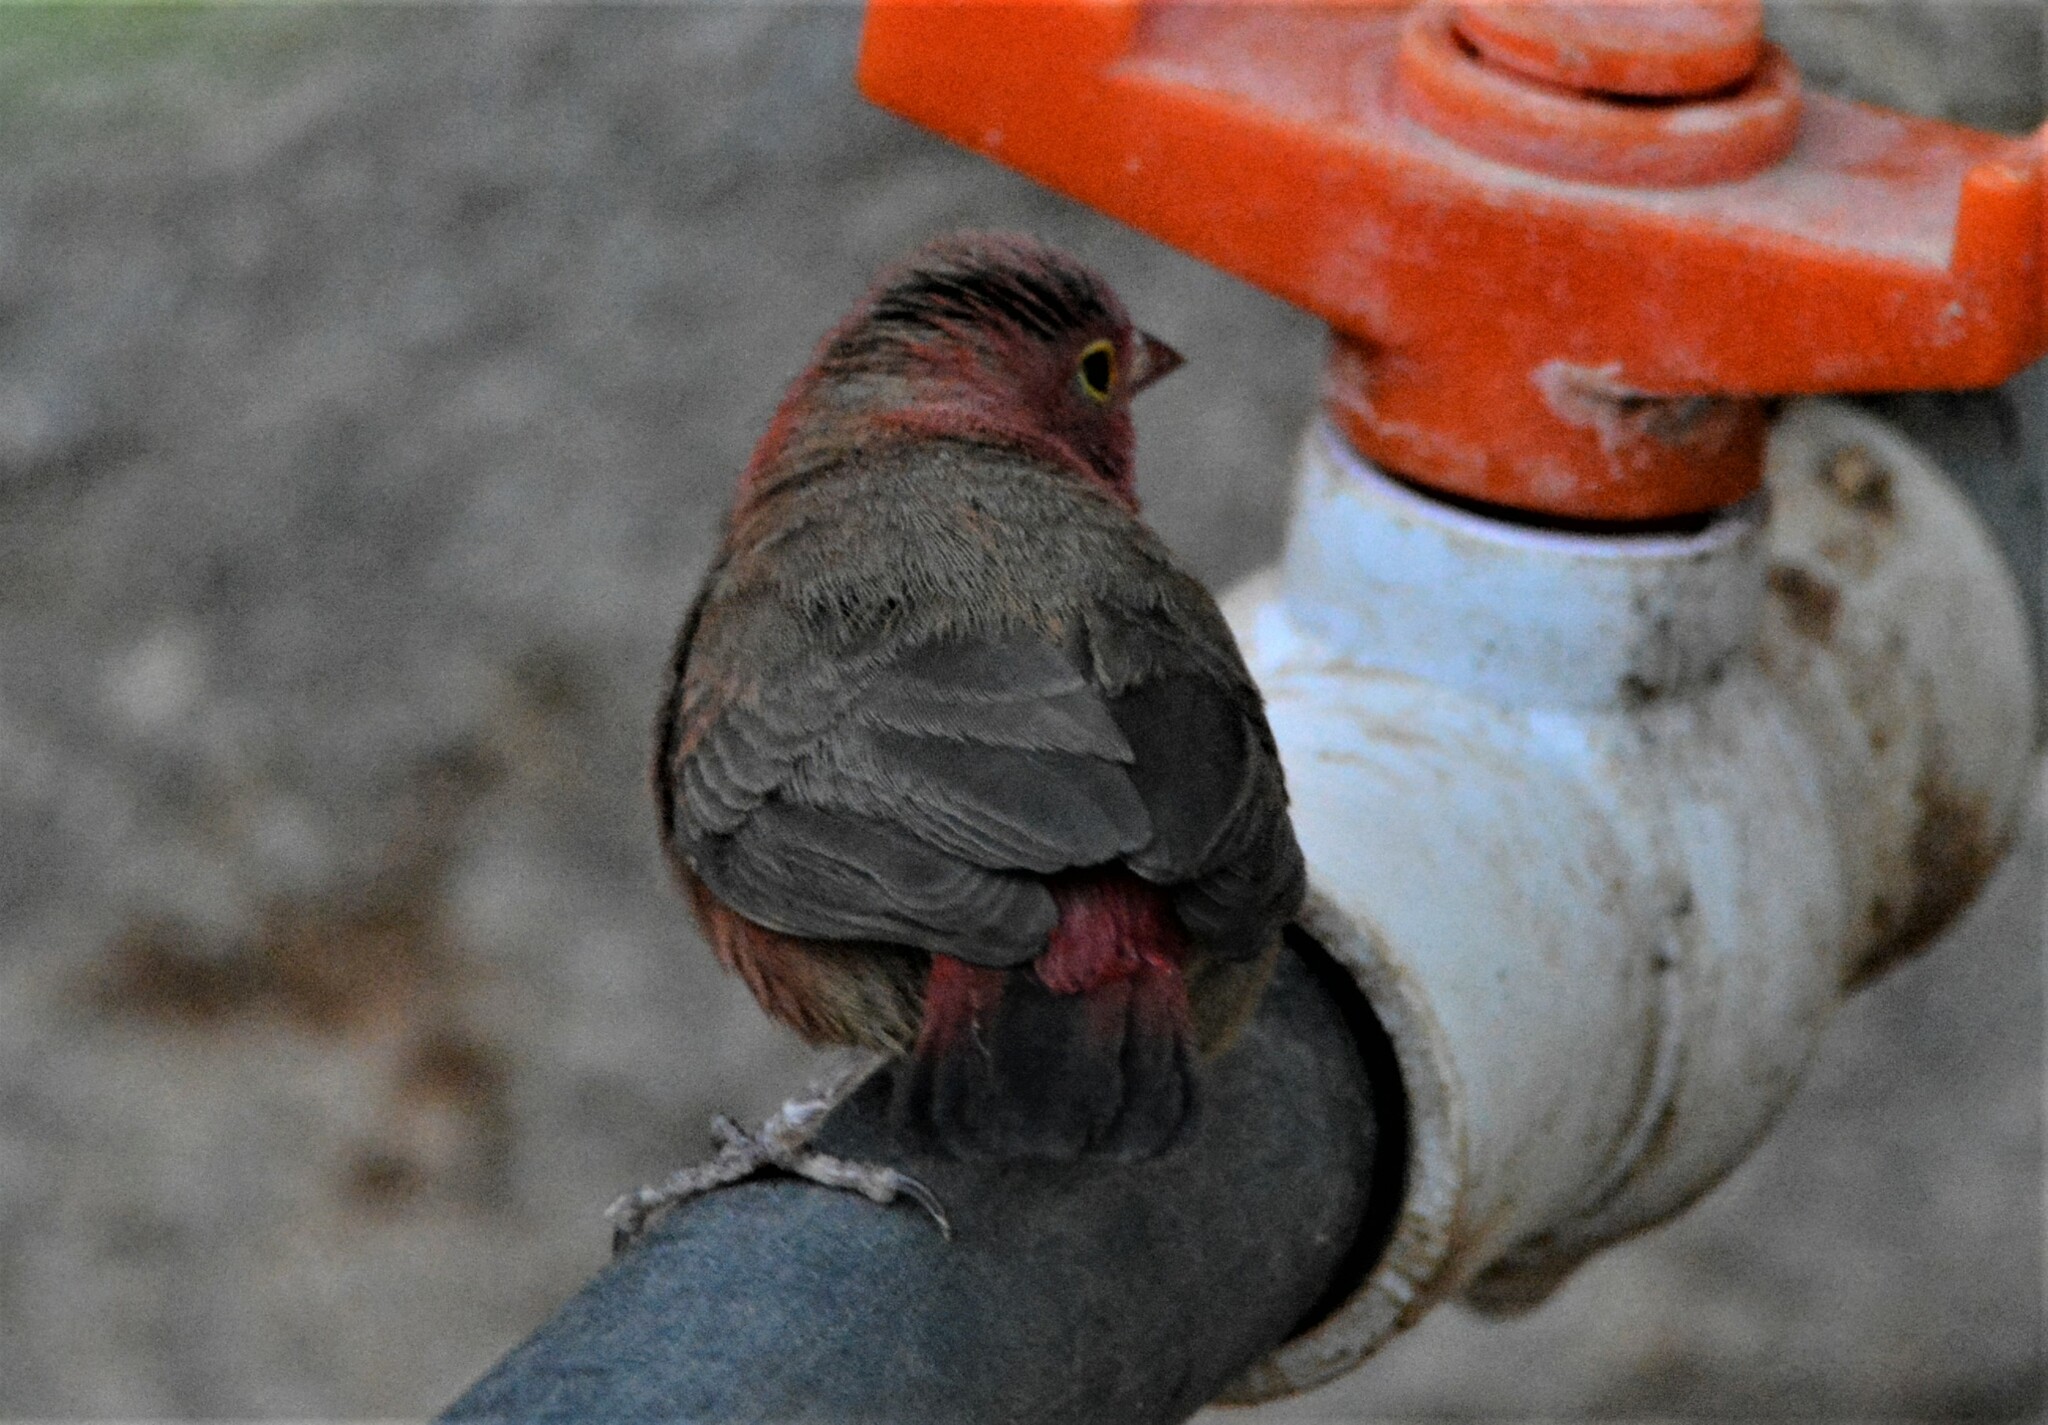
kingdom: Animalia
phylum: Chordata
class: Aves
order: Passeriformes
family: Estrildidae
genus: Lagonosticta
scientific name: Lagonosticta senegala
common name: Red-billed firefinch
